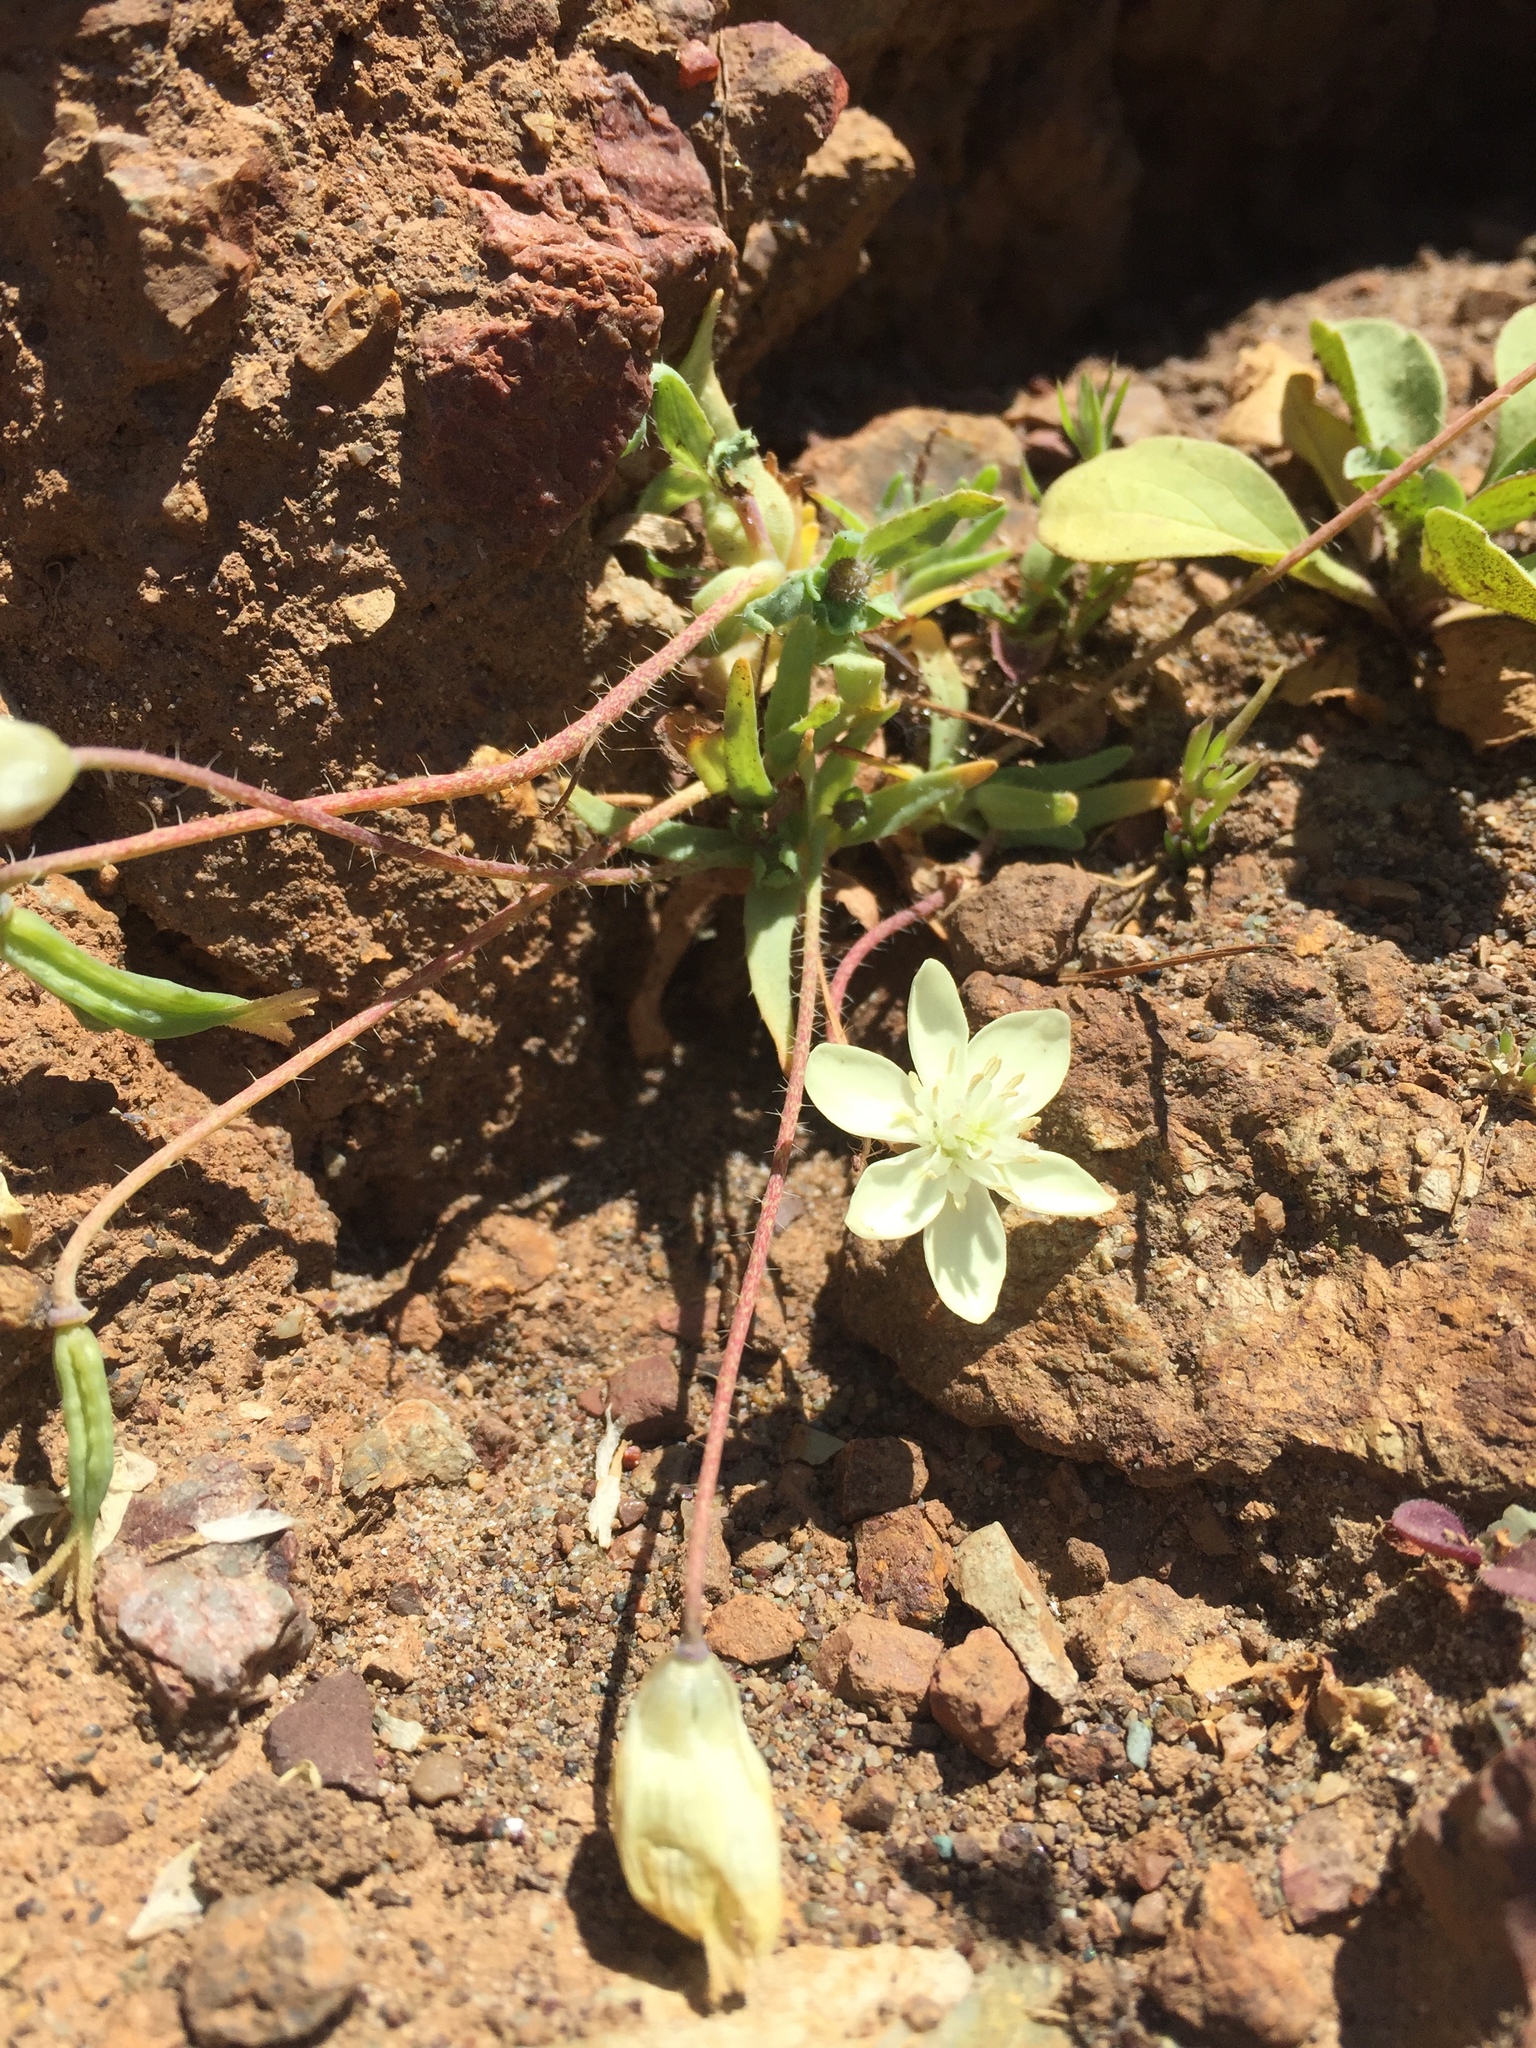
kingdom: Plantae
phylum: Tracheophyta
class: Magnoliopsida
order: Ranunculales
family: Papaveraceae
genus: Platystemon
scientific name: Platystemon californicus
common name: Cream-cups
